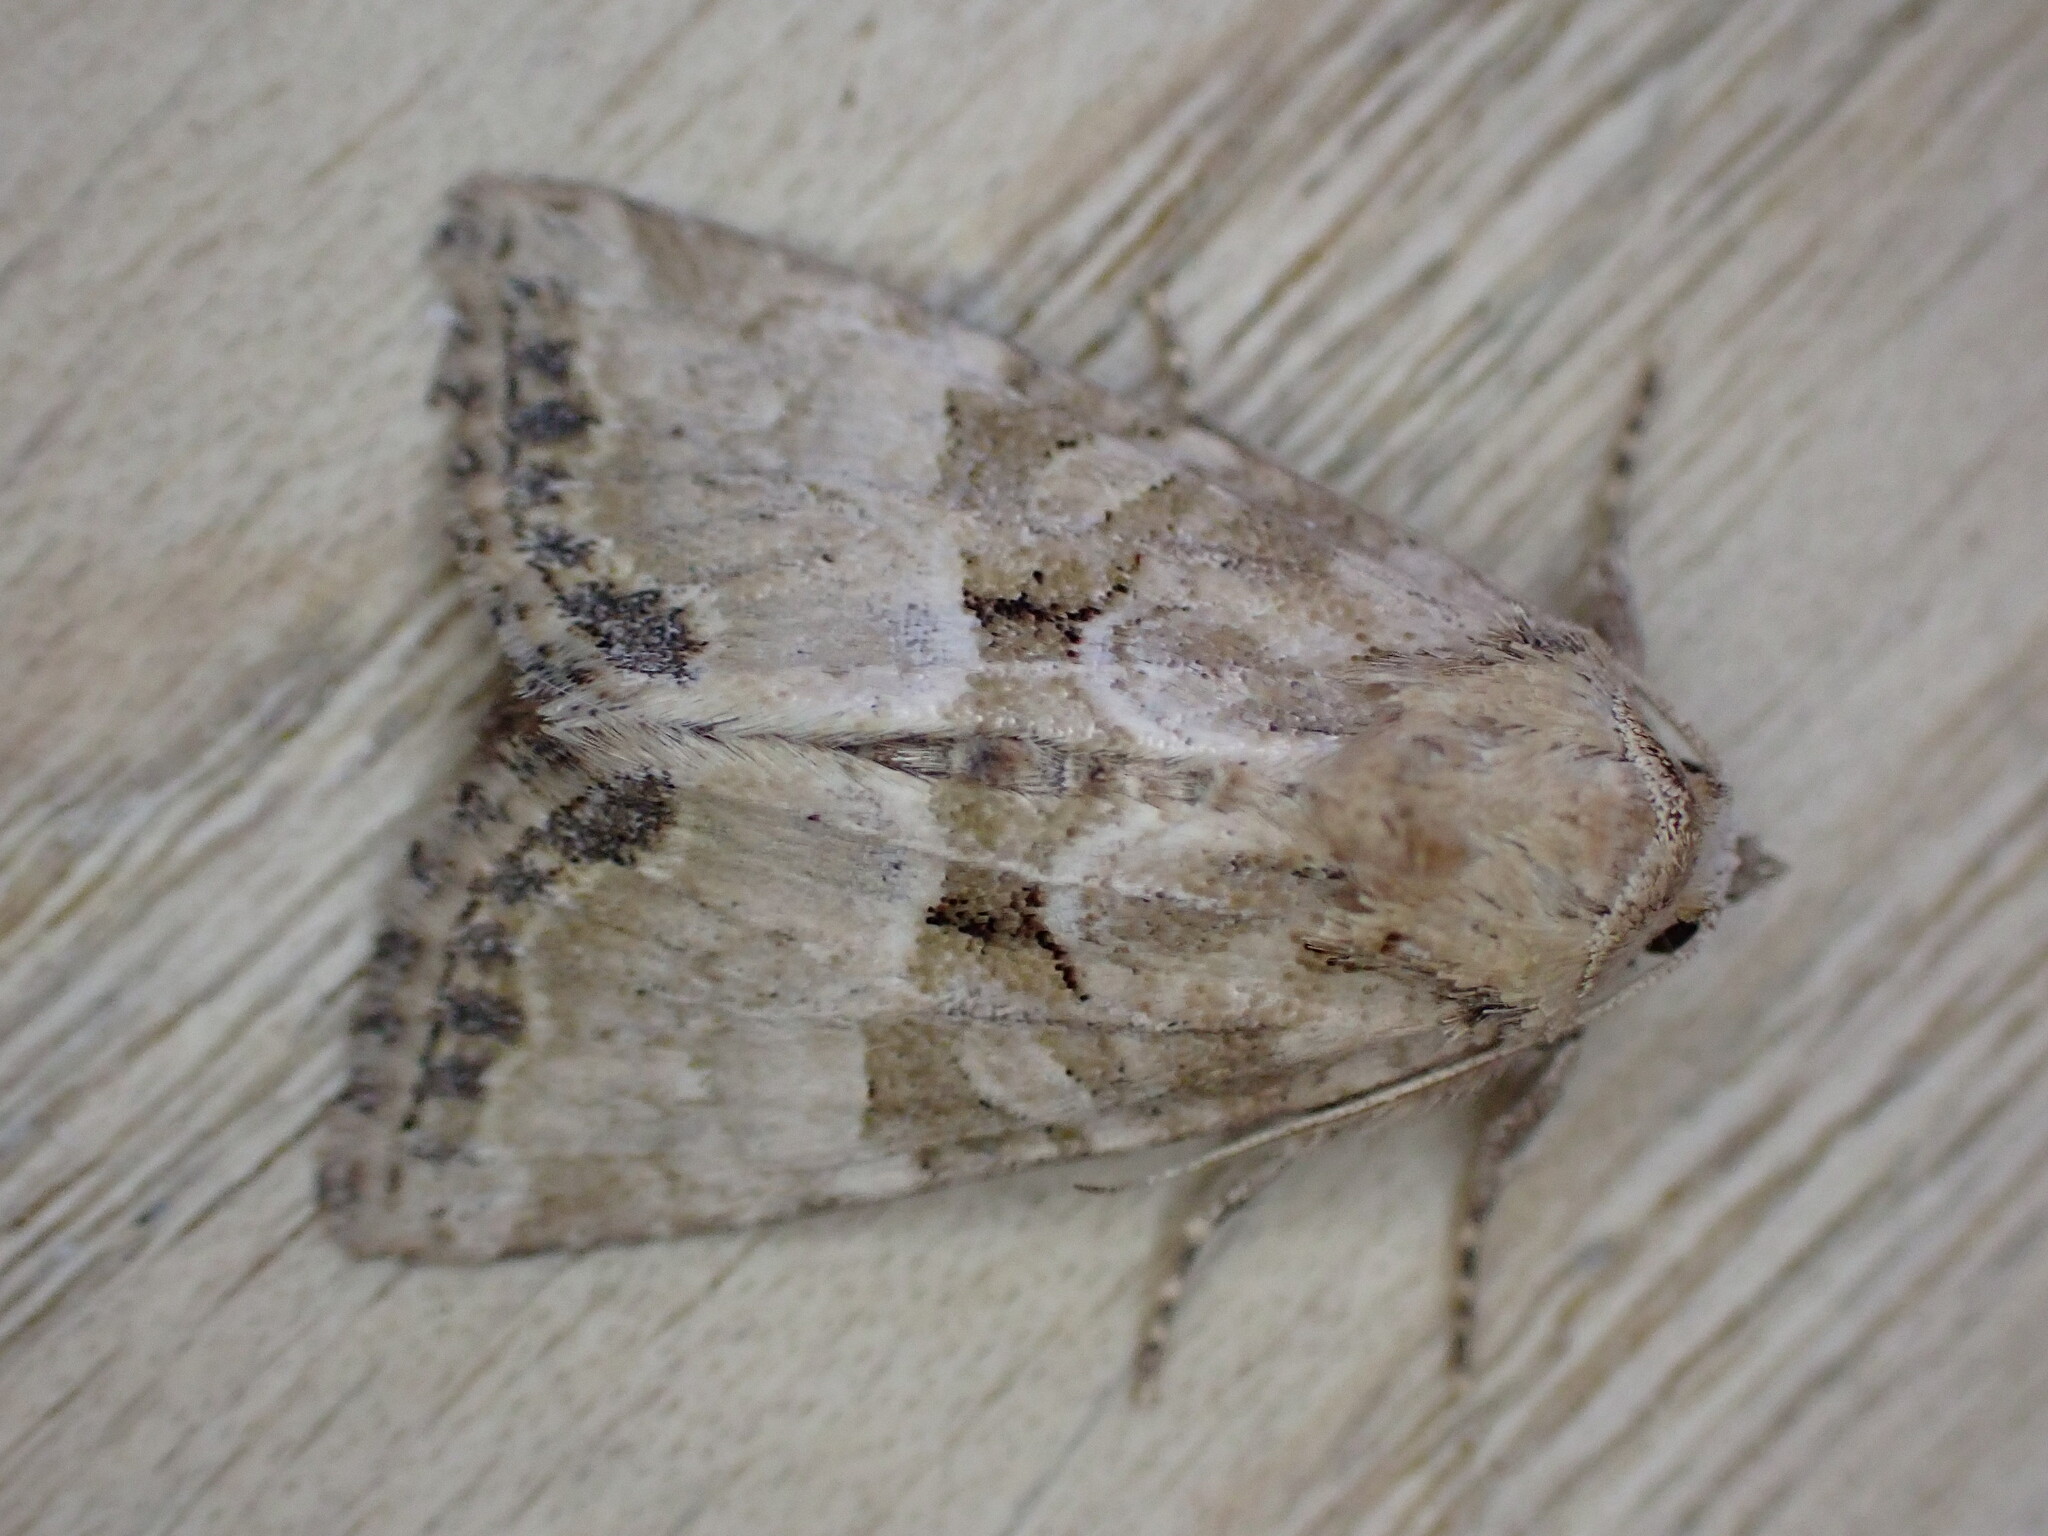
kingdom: Animalia
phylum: Arthropoda
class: Insecta
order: Lepidoptera
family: Noctuidae
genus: Mesoligia
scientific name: Mesoligia furuncula
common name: Cloaked minor
